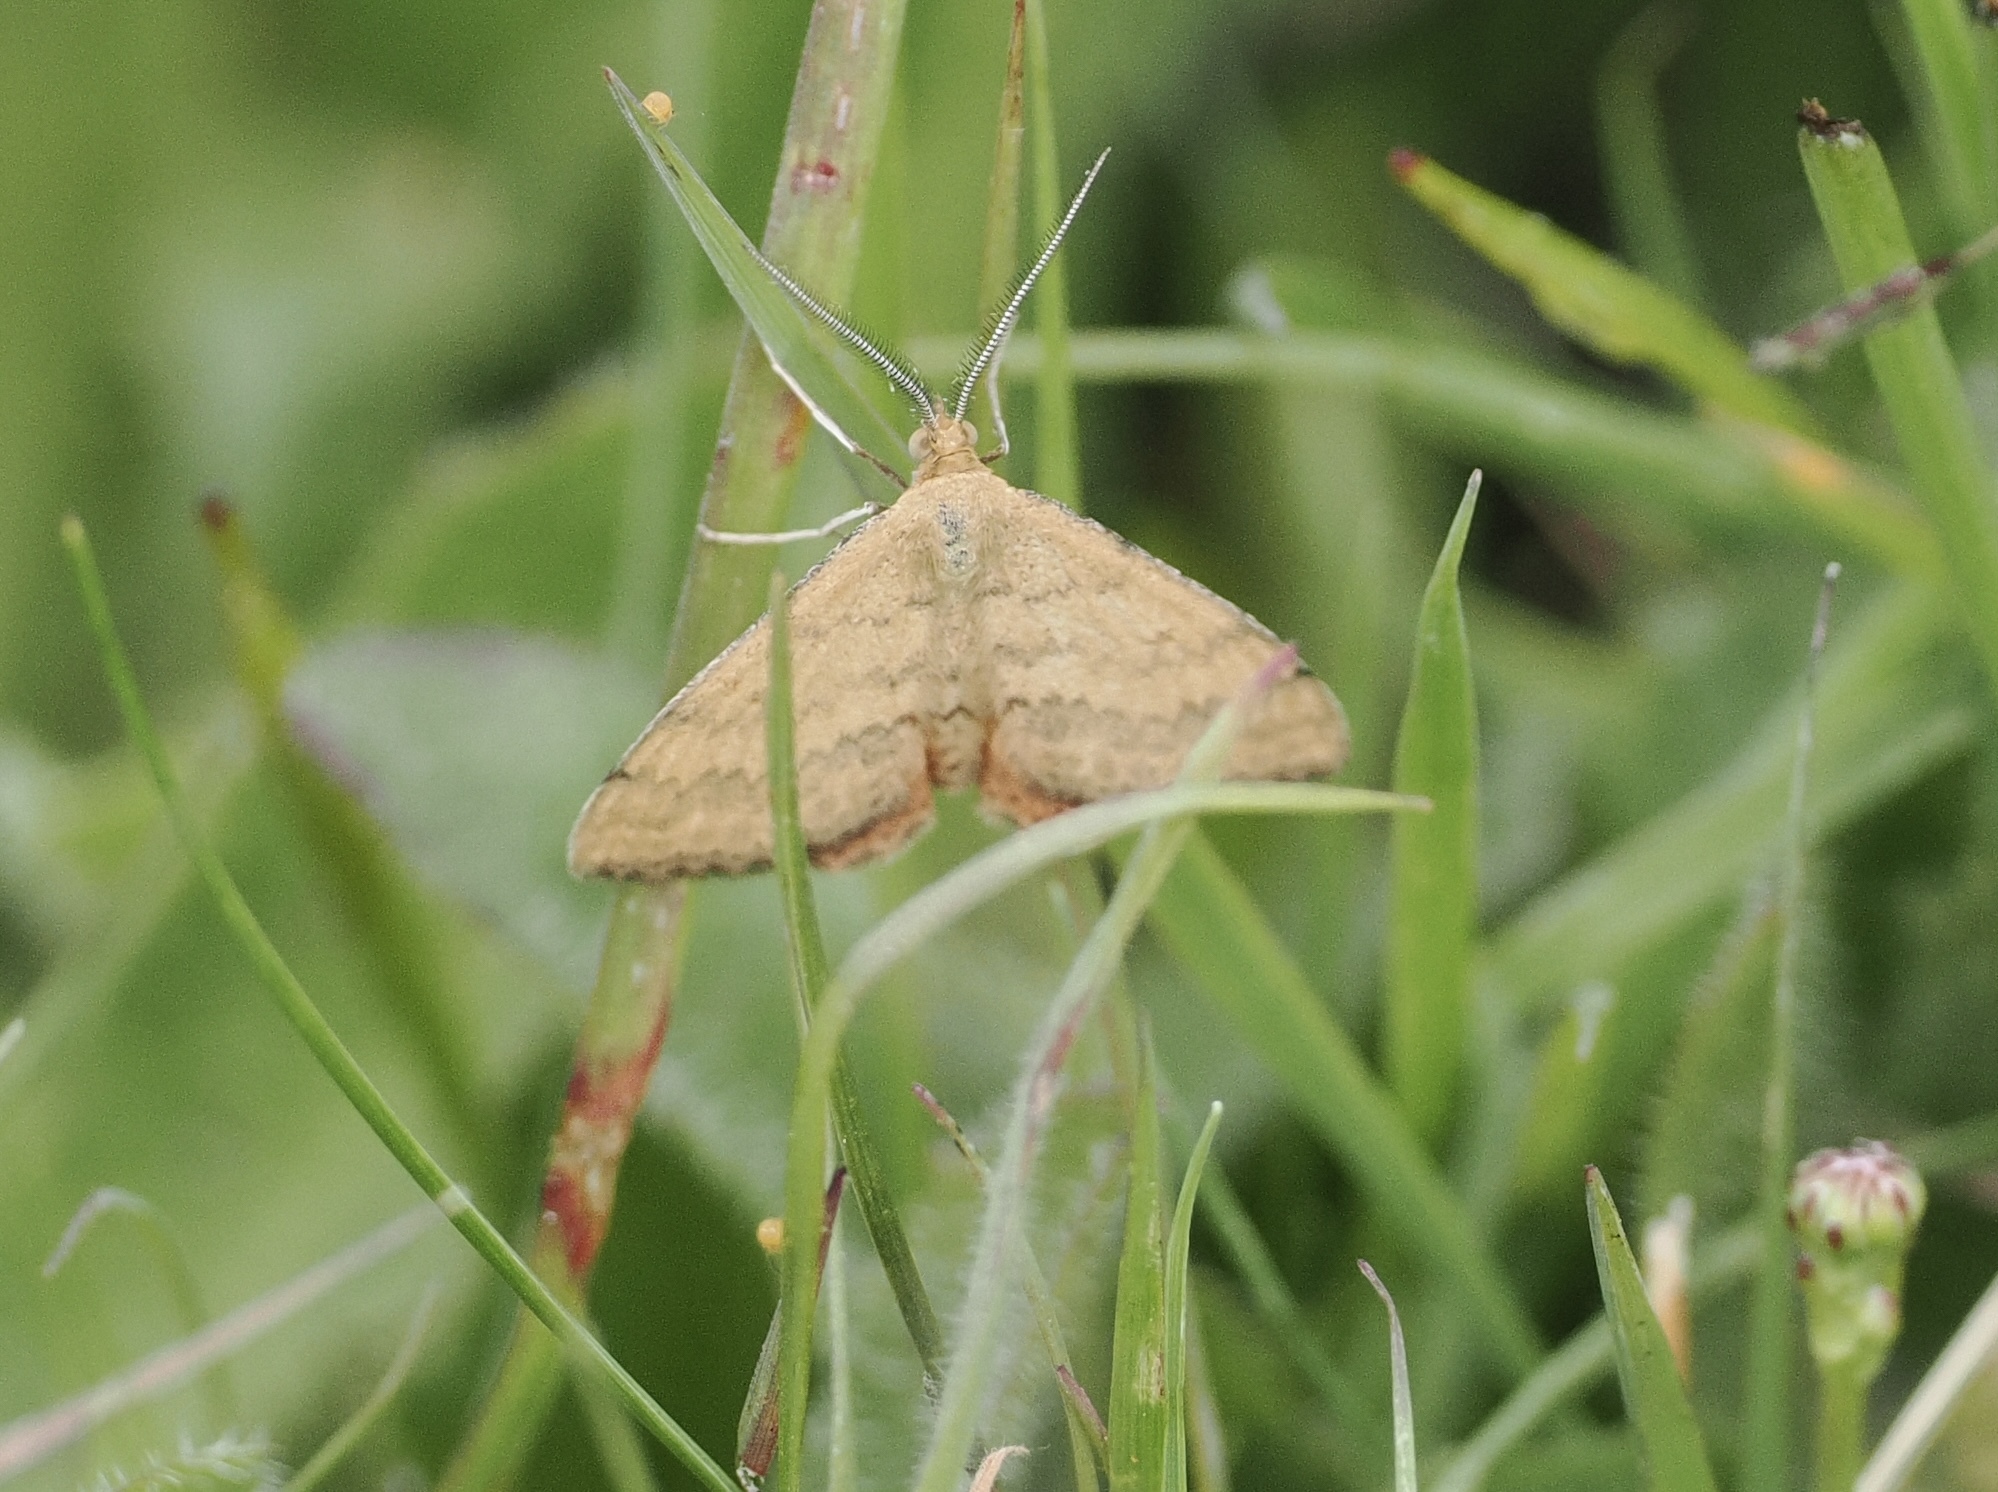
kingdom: Animalia
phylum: Arthropoda
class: Insecta
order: Lepidoptera
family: Geometridae
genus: Scopula
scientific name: Scopula rubraria
